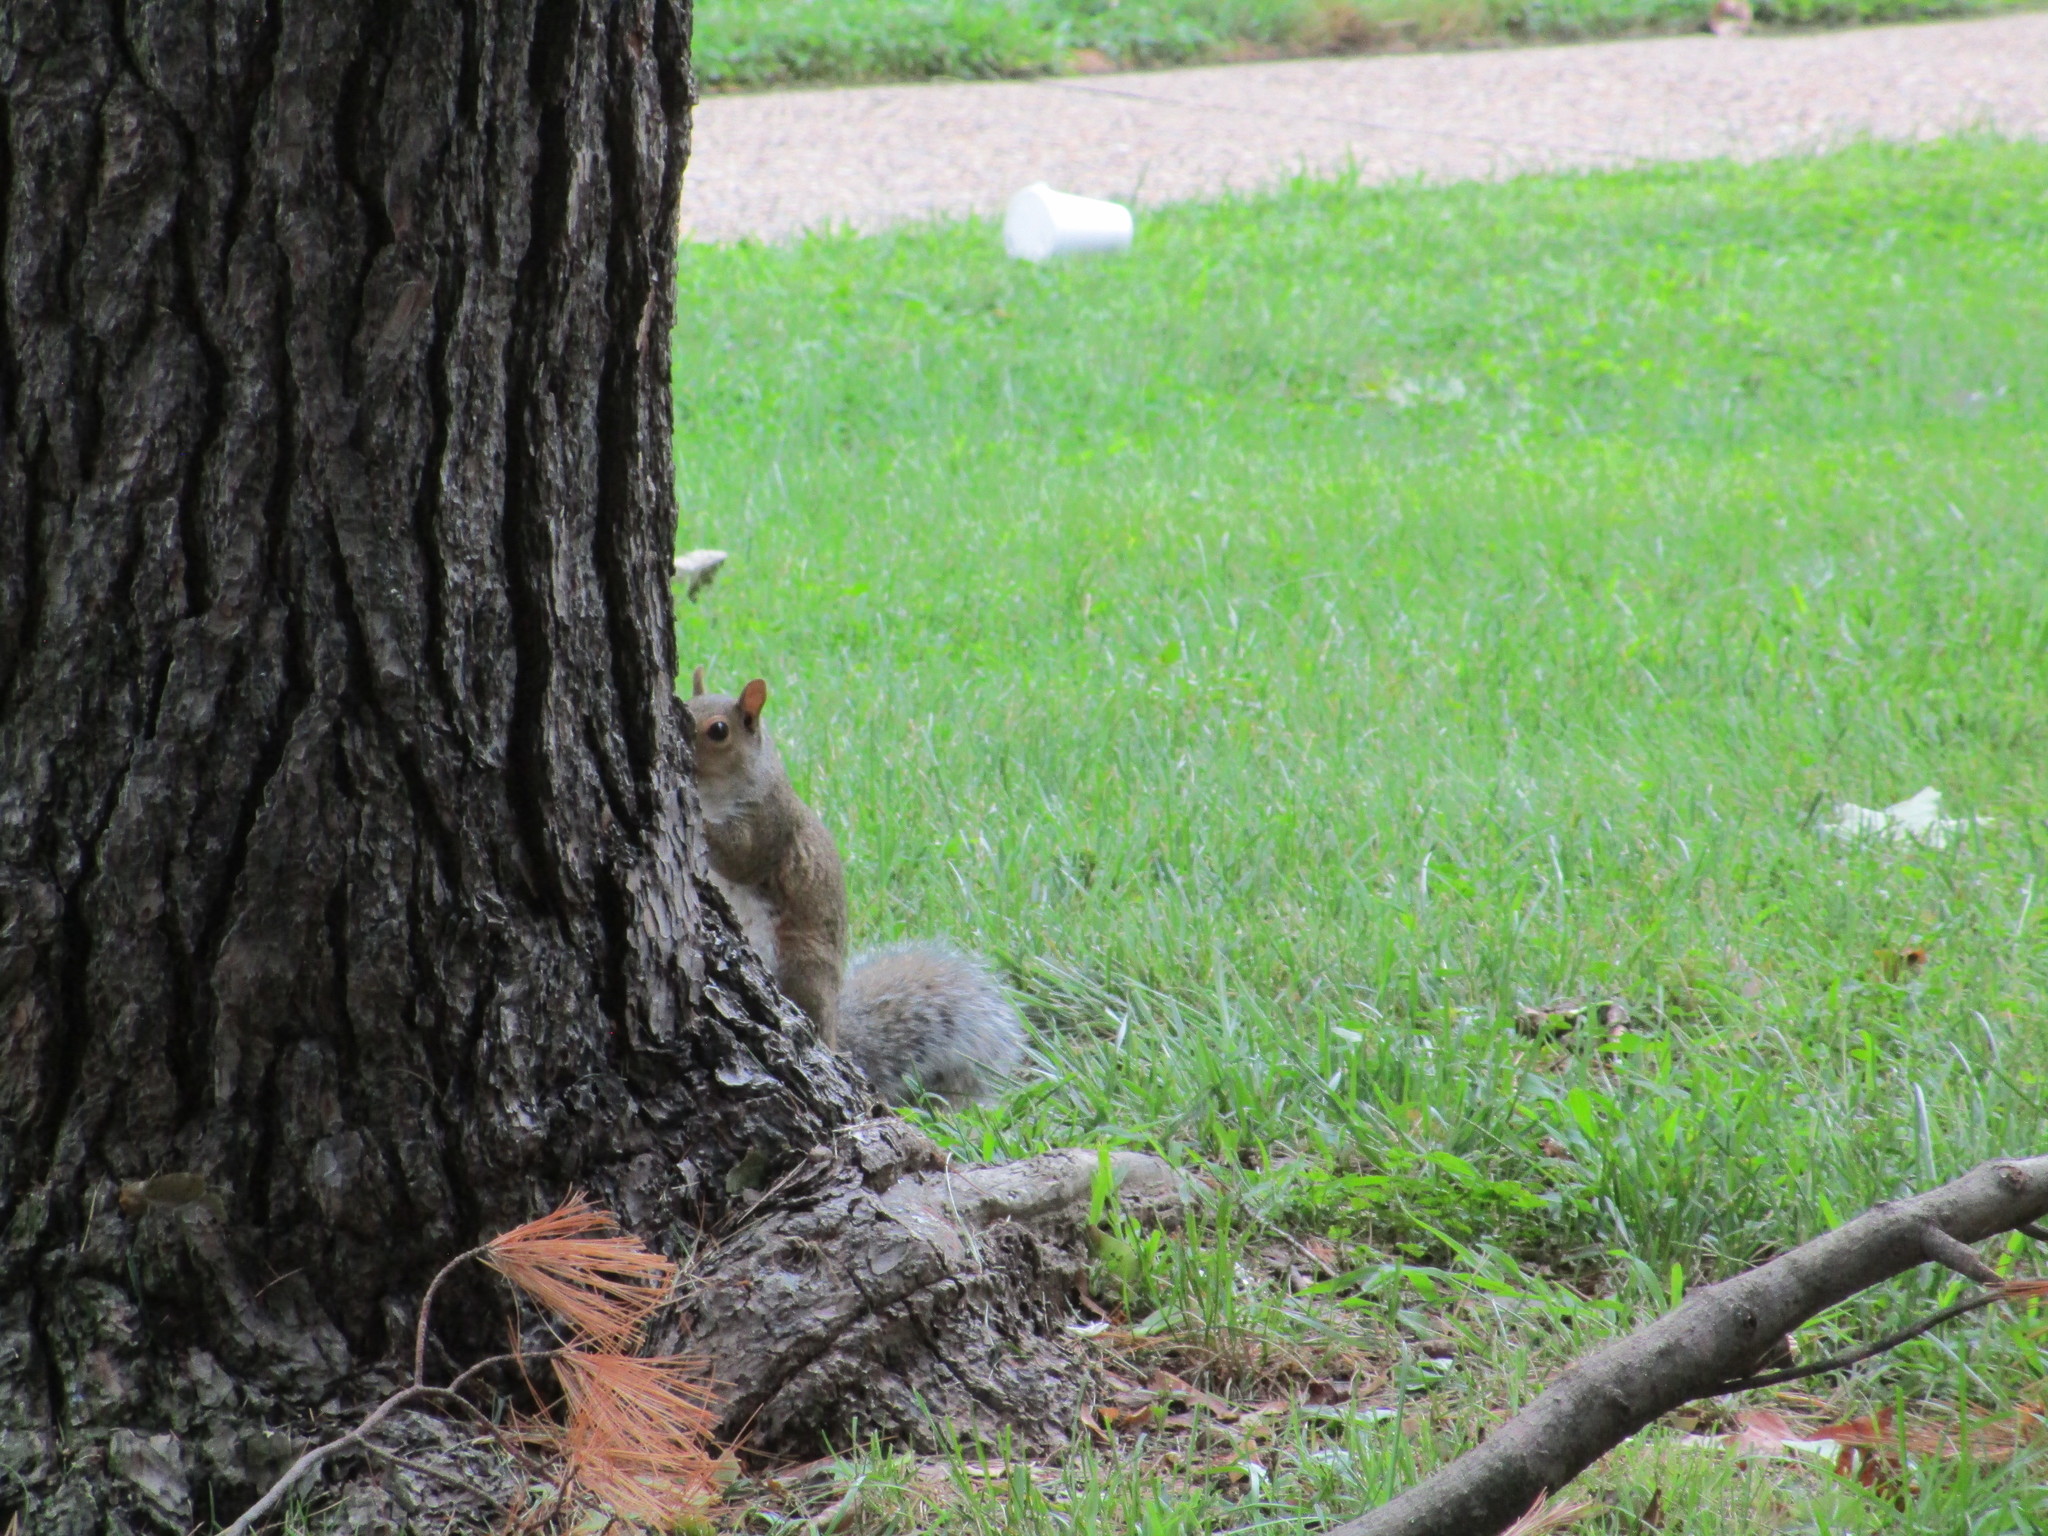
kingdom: Animalia
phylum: Chordata
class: Mammalia
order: Rodentia
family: Sciuridae
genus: Sciurus
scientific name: Sciurus carolinensis
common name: Eastern gray squirrel
